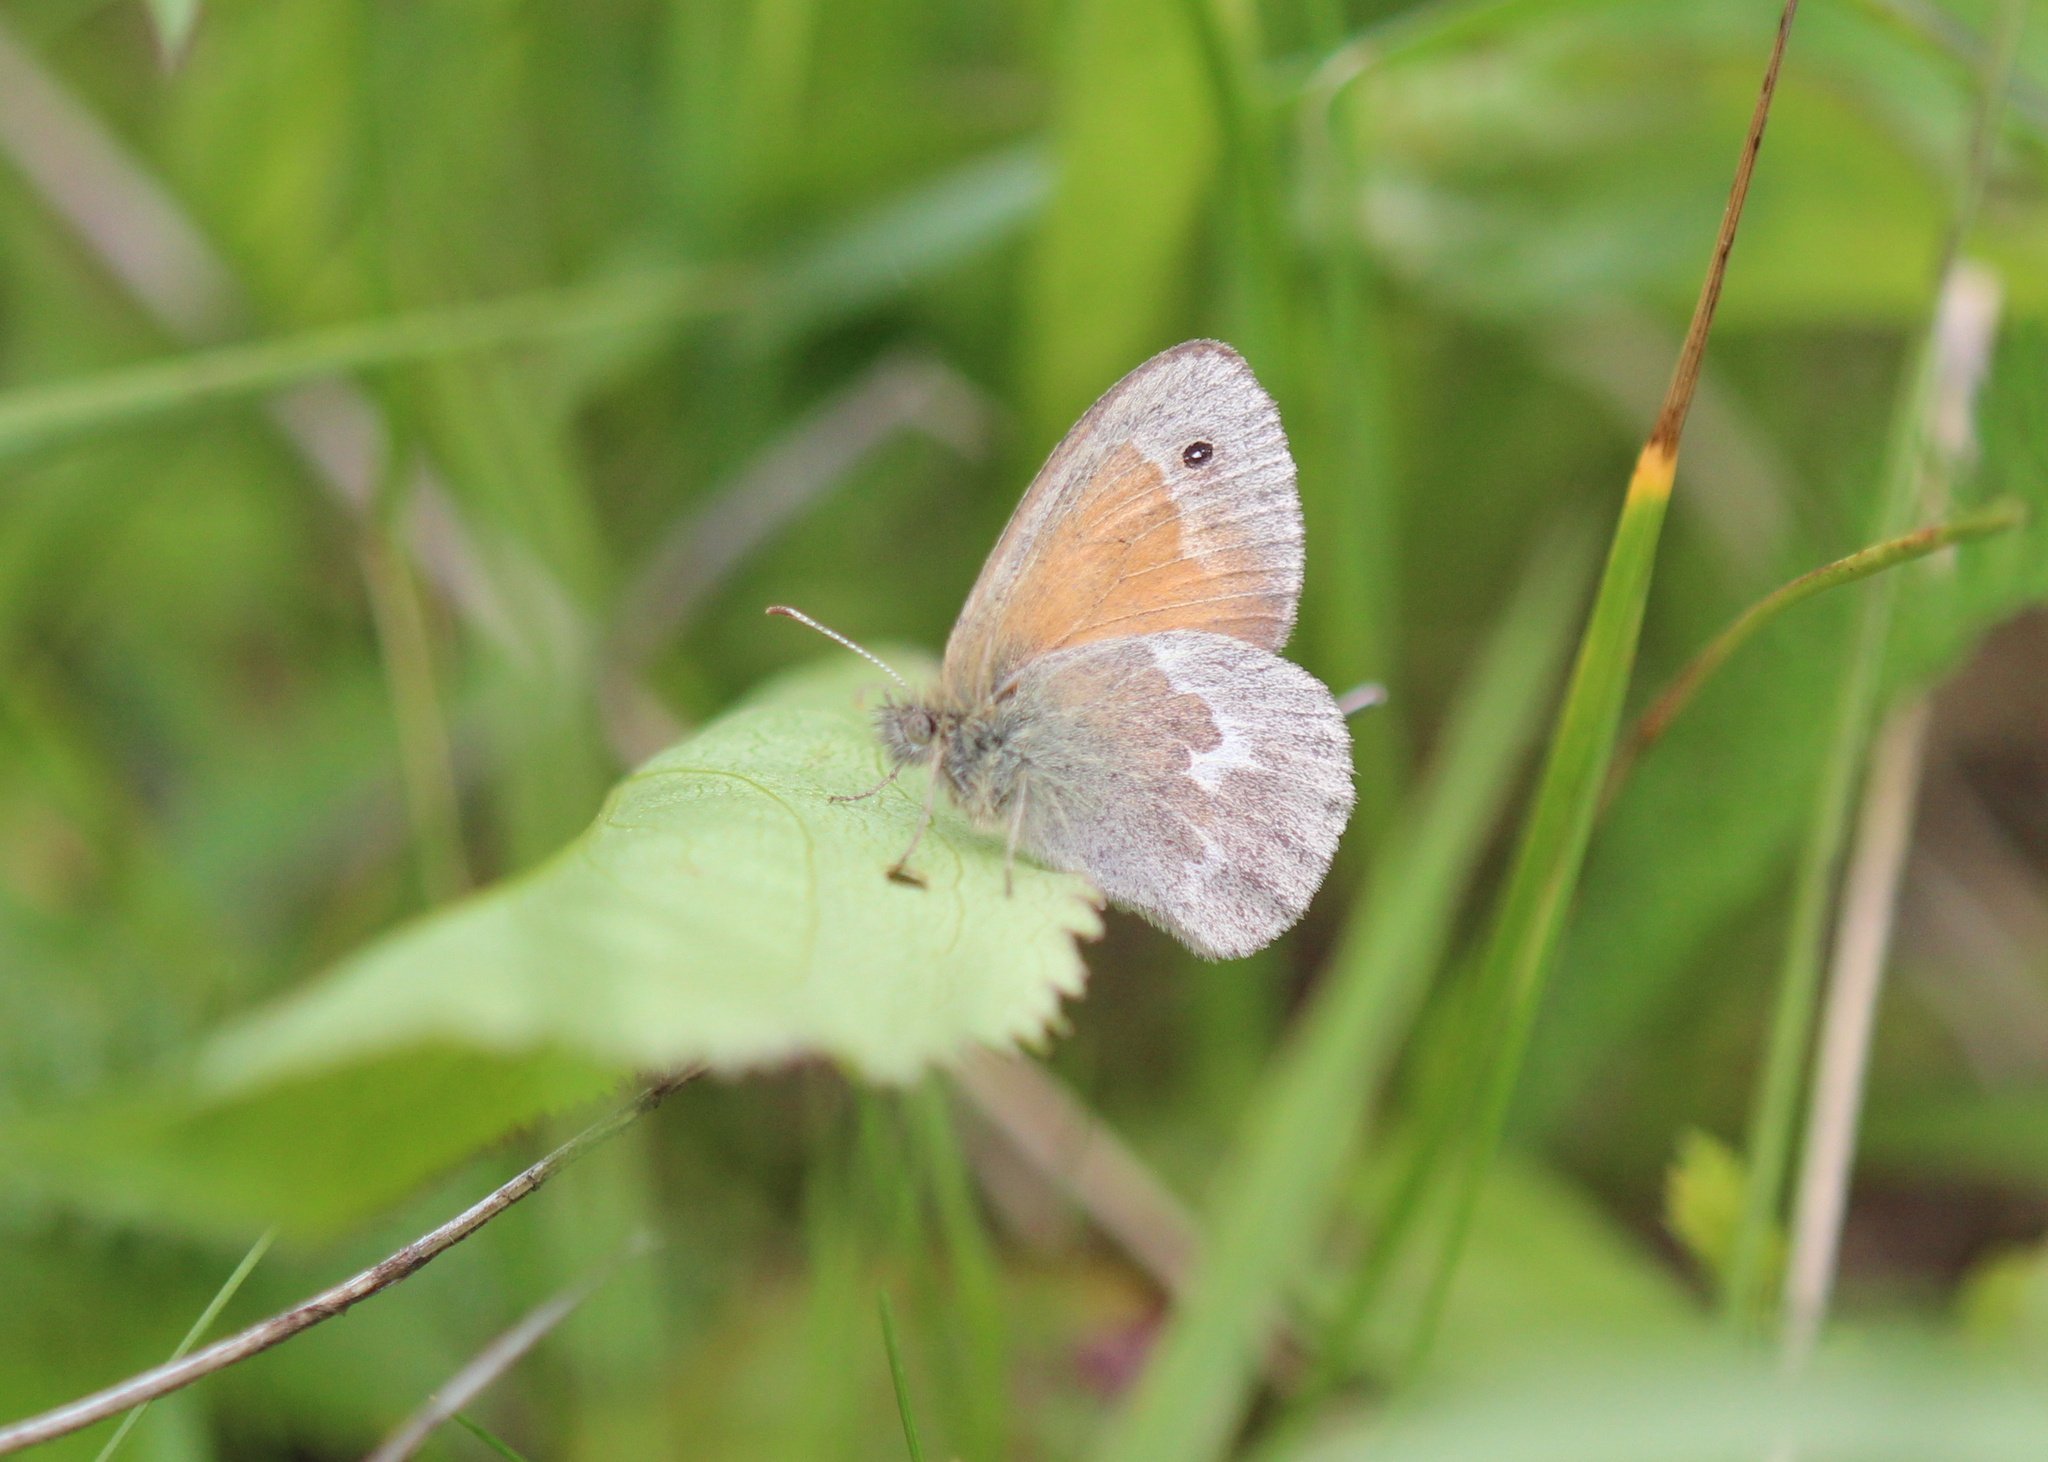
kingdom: Animalia
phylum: Arthropoda
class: Insecta
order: Lepidoptera
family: Nymphalidae
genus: Coenonympha
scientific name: Coenonympha california
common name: Common ringlet
